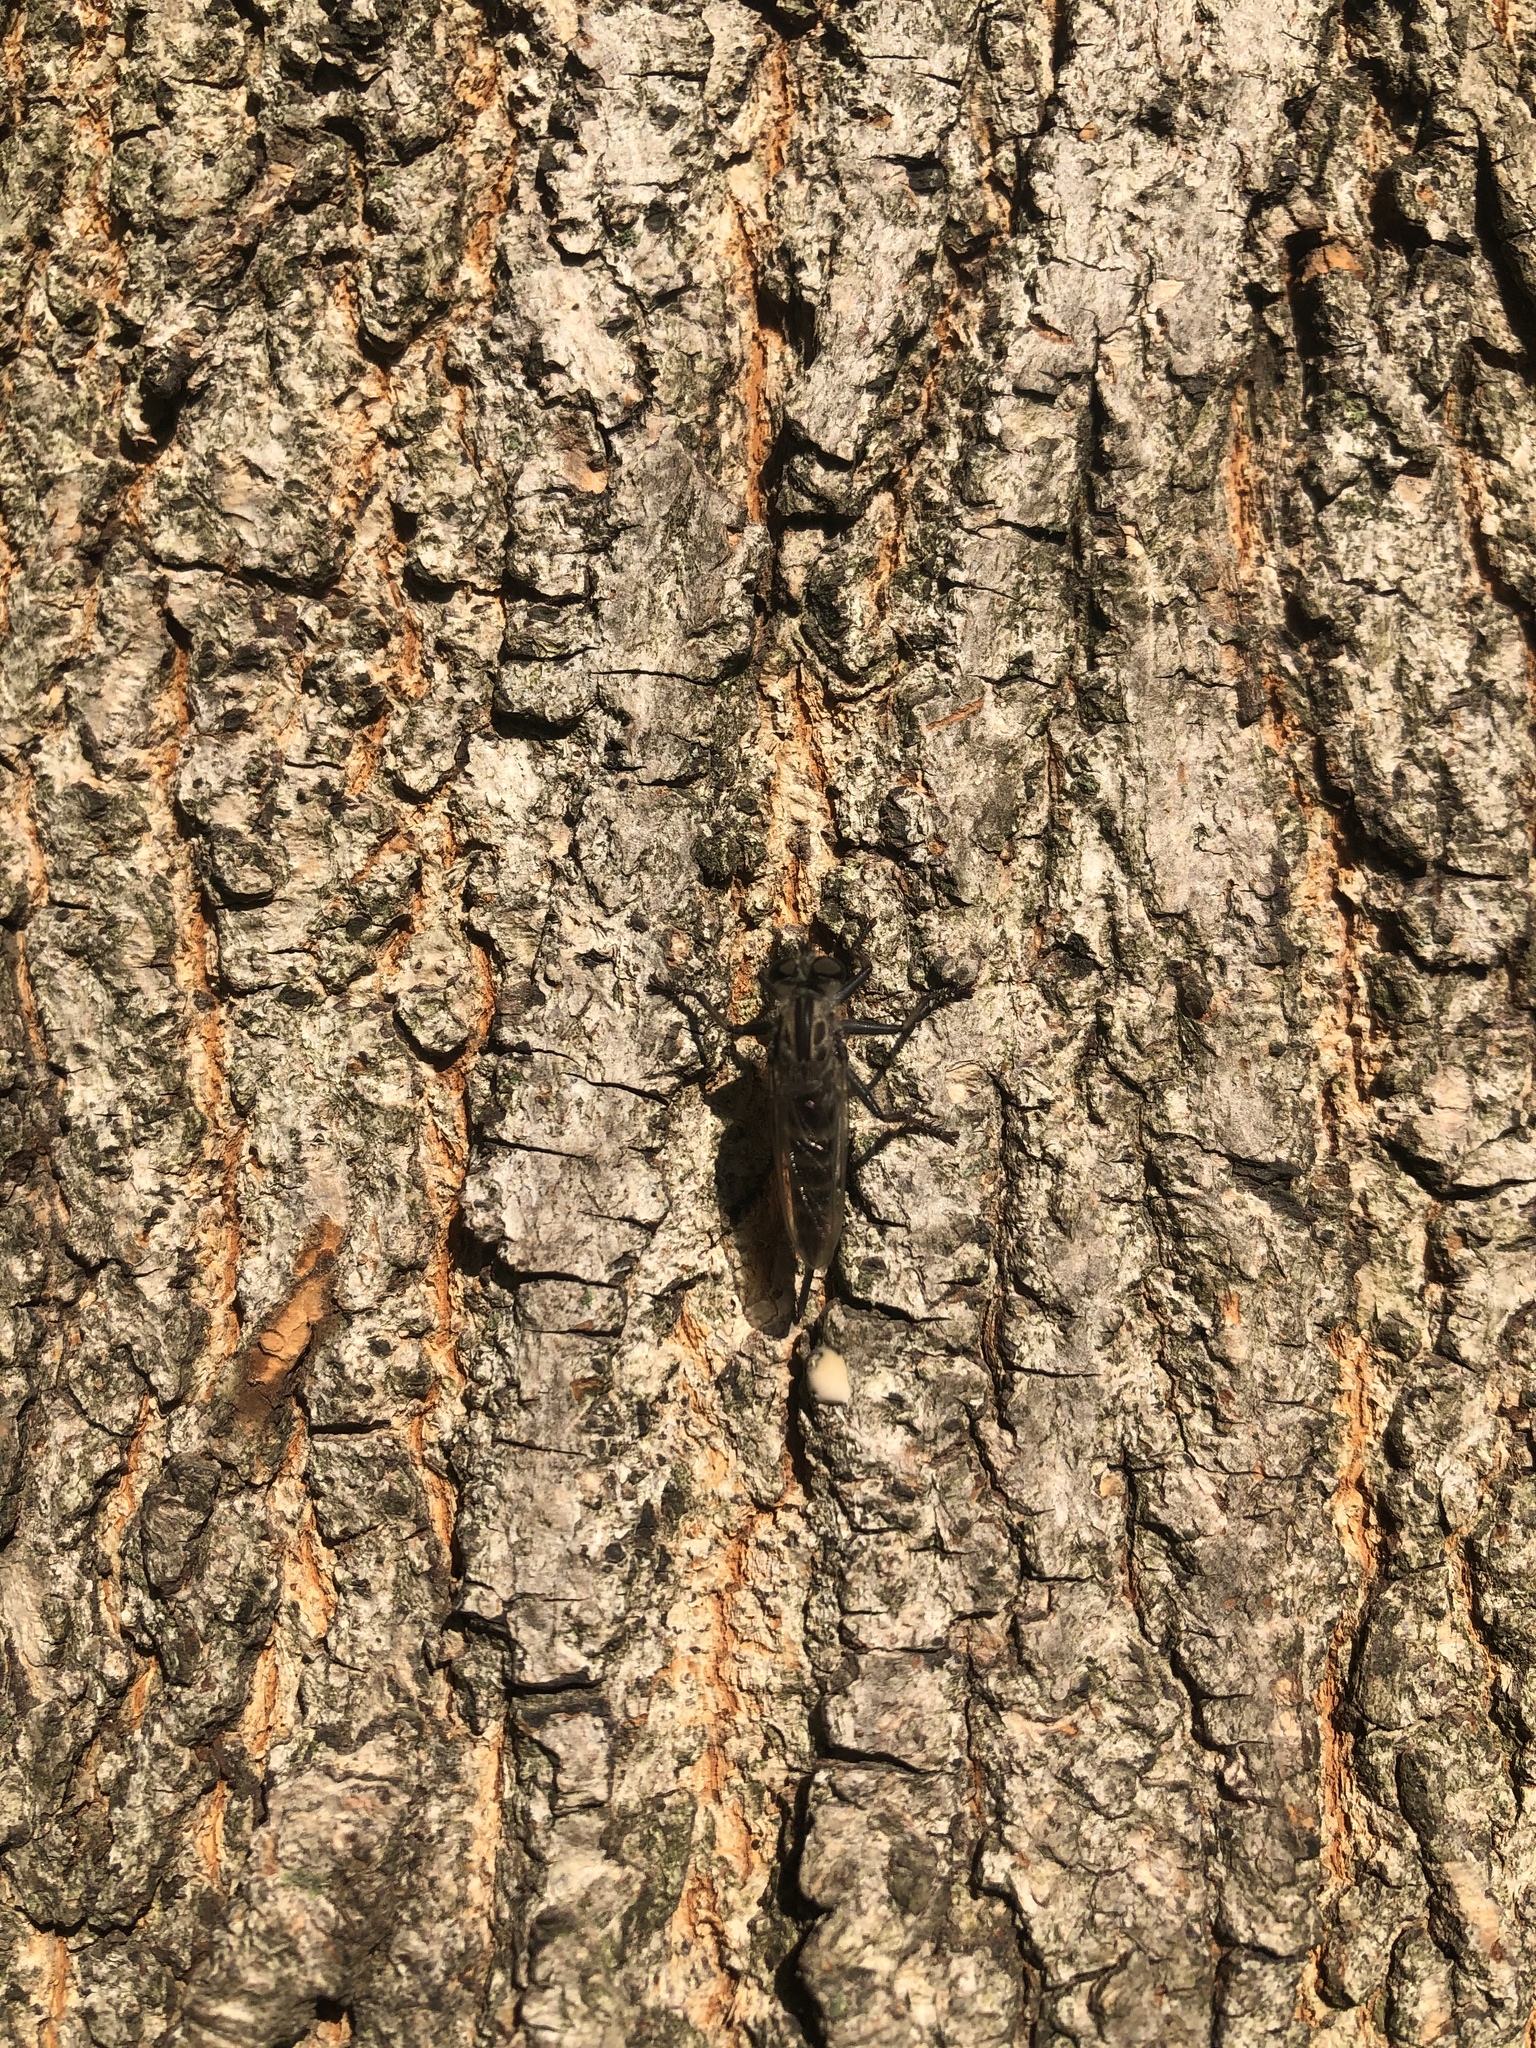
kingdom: Animalia
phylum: Arthropoda
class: Insecta
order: Diptera
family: Asilidae
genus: Efferia
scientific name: Efferia aestuans
